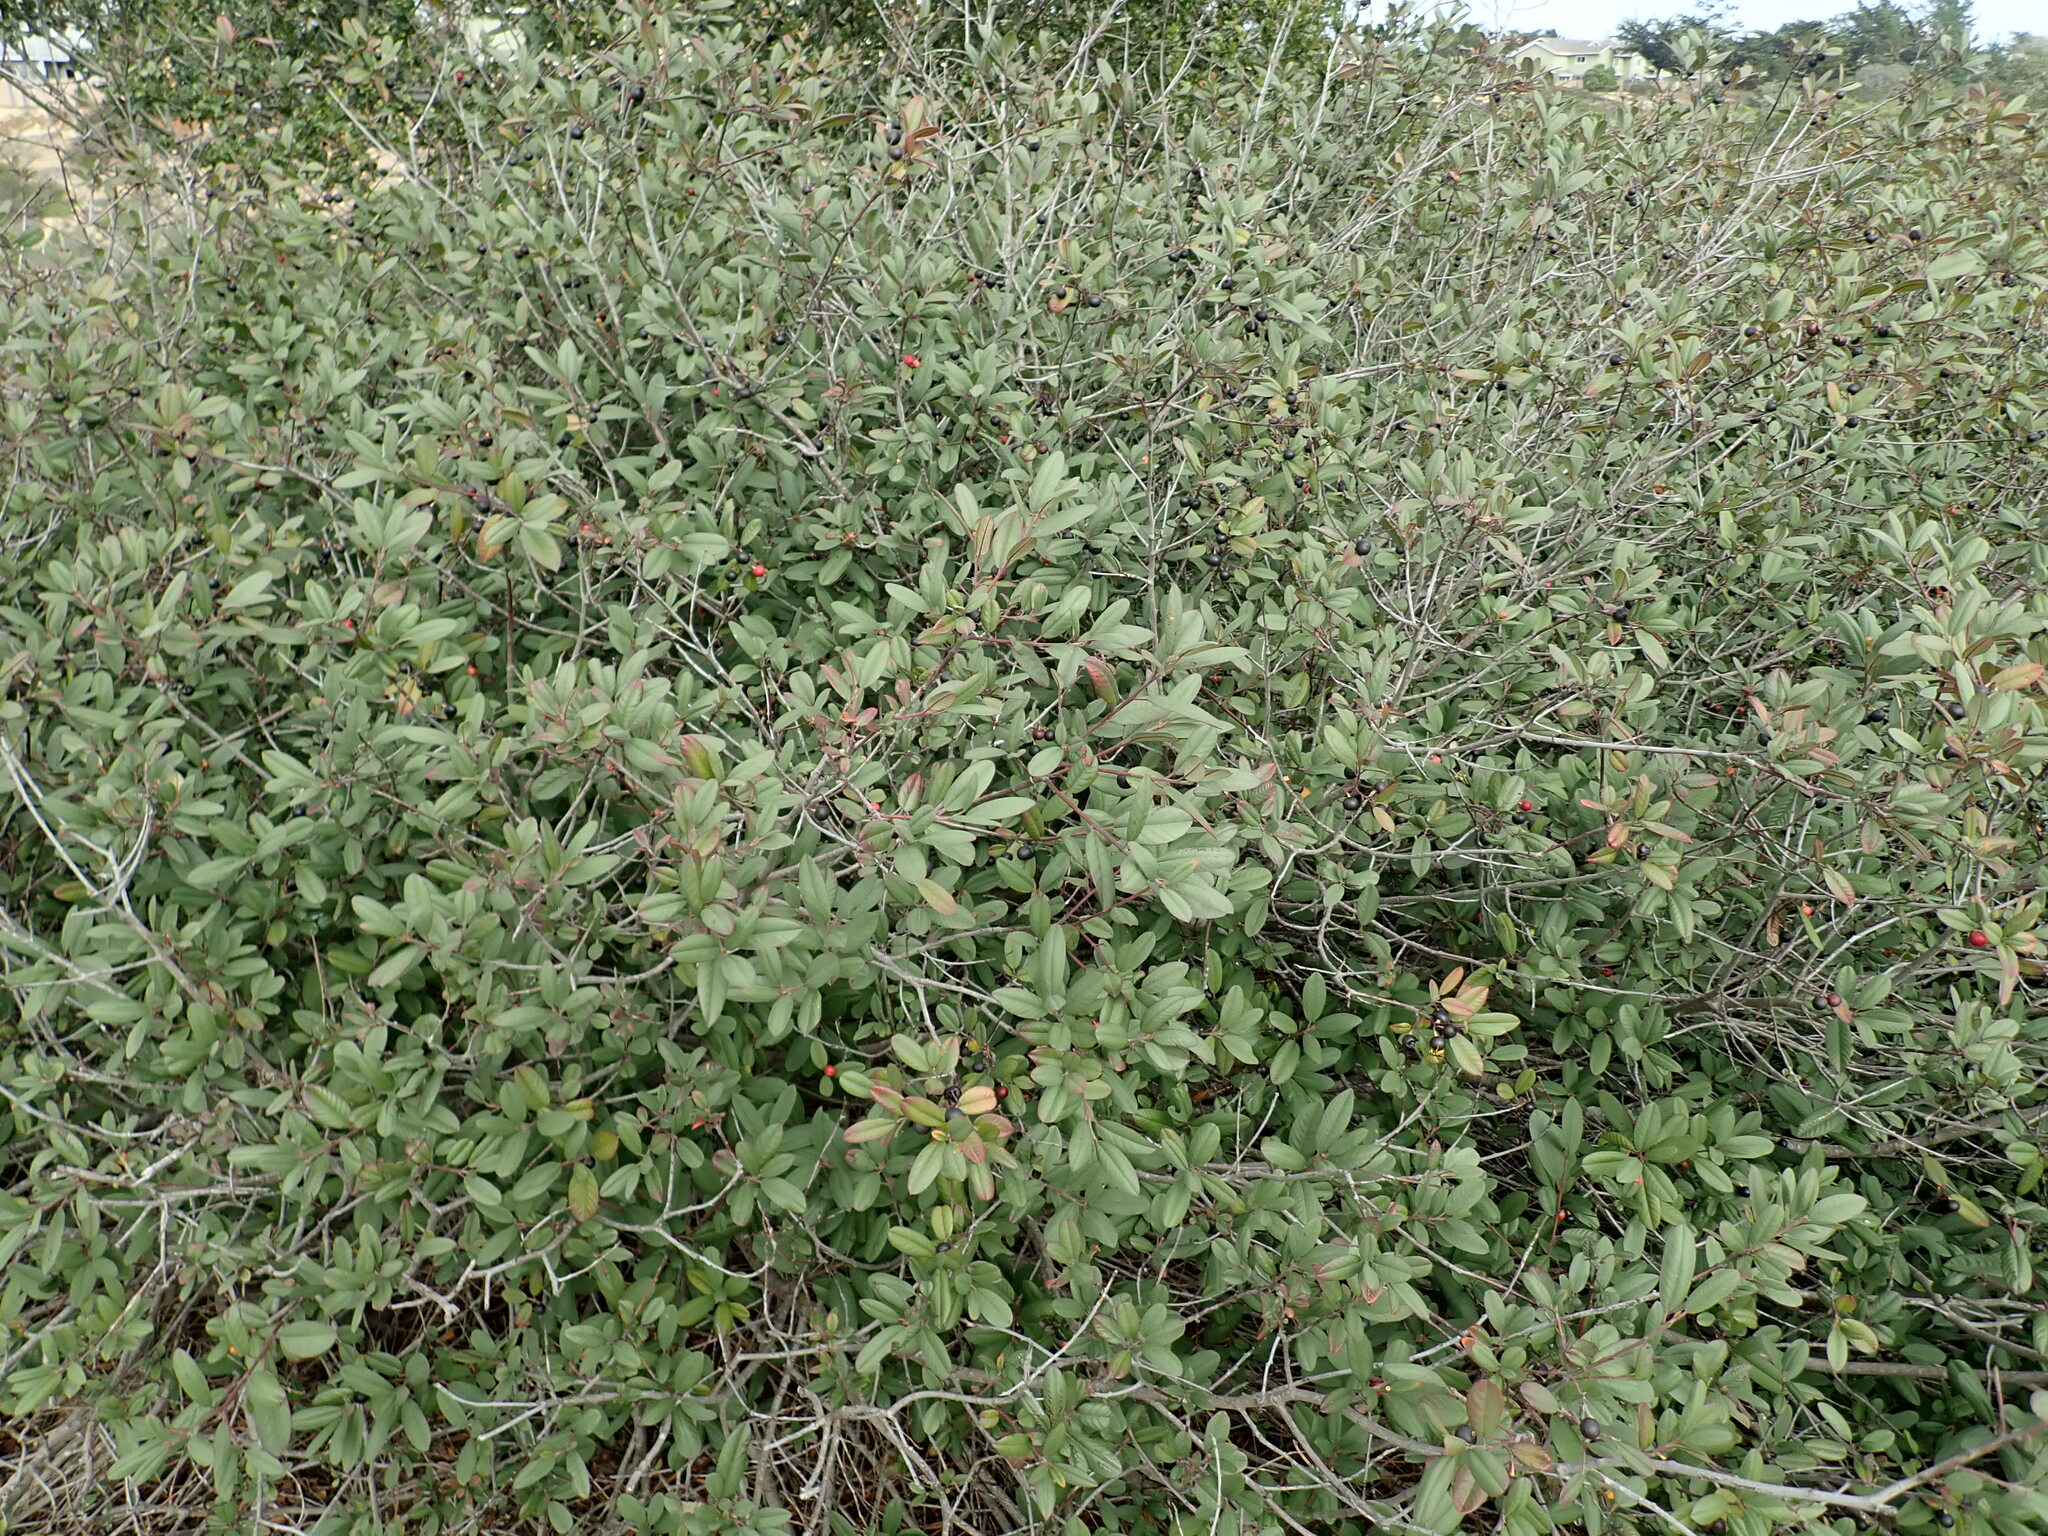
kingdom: Plantae
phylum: Tracheophyta
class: Magnoliopsida
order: Rosales
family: Rhamnaceae
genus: Frangula
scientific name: Frangula californica
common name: California buckthorn
